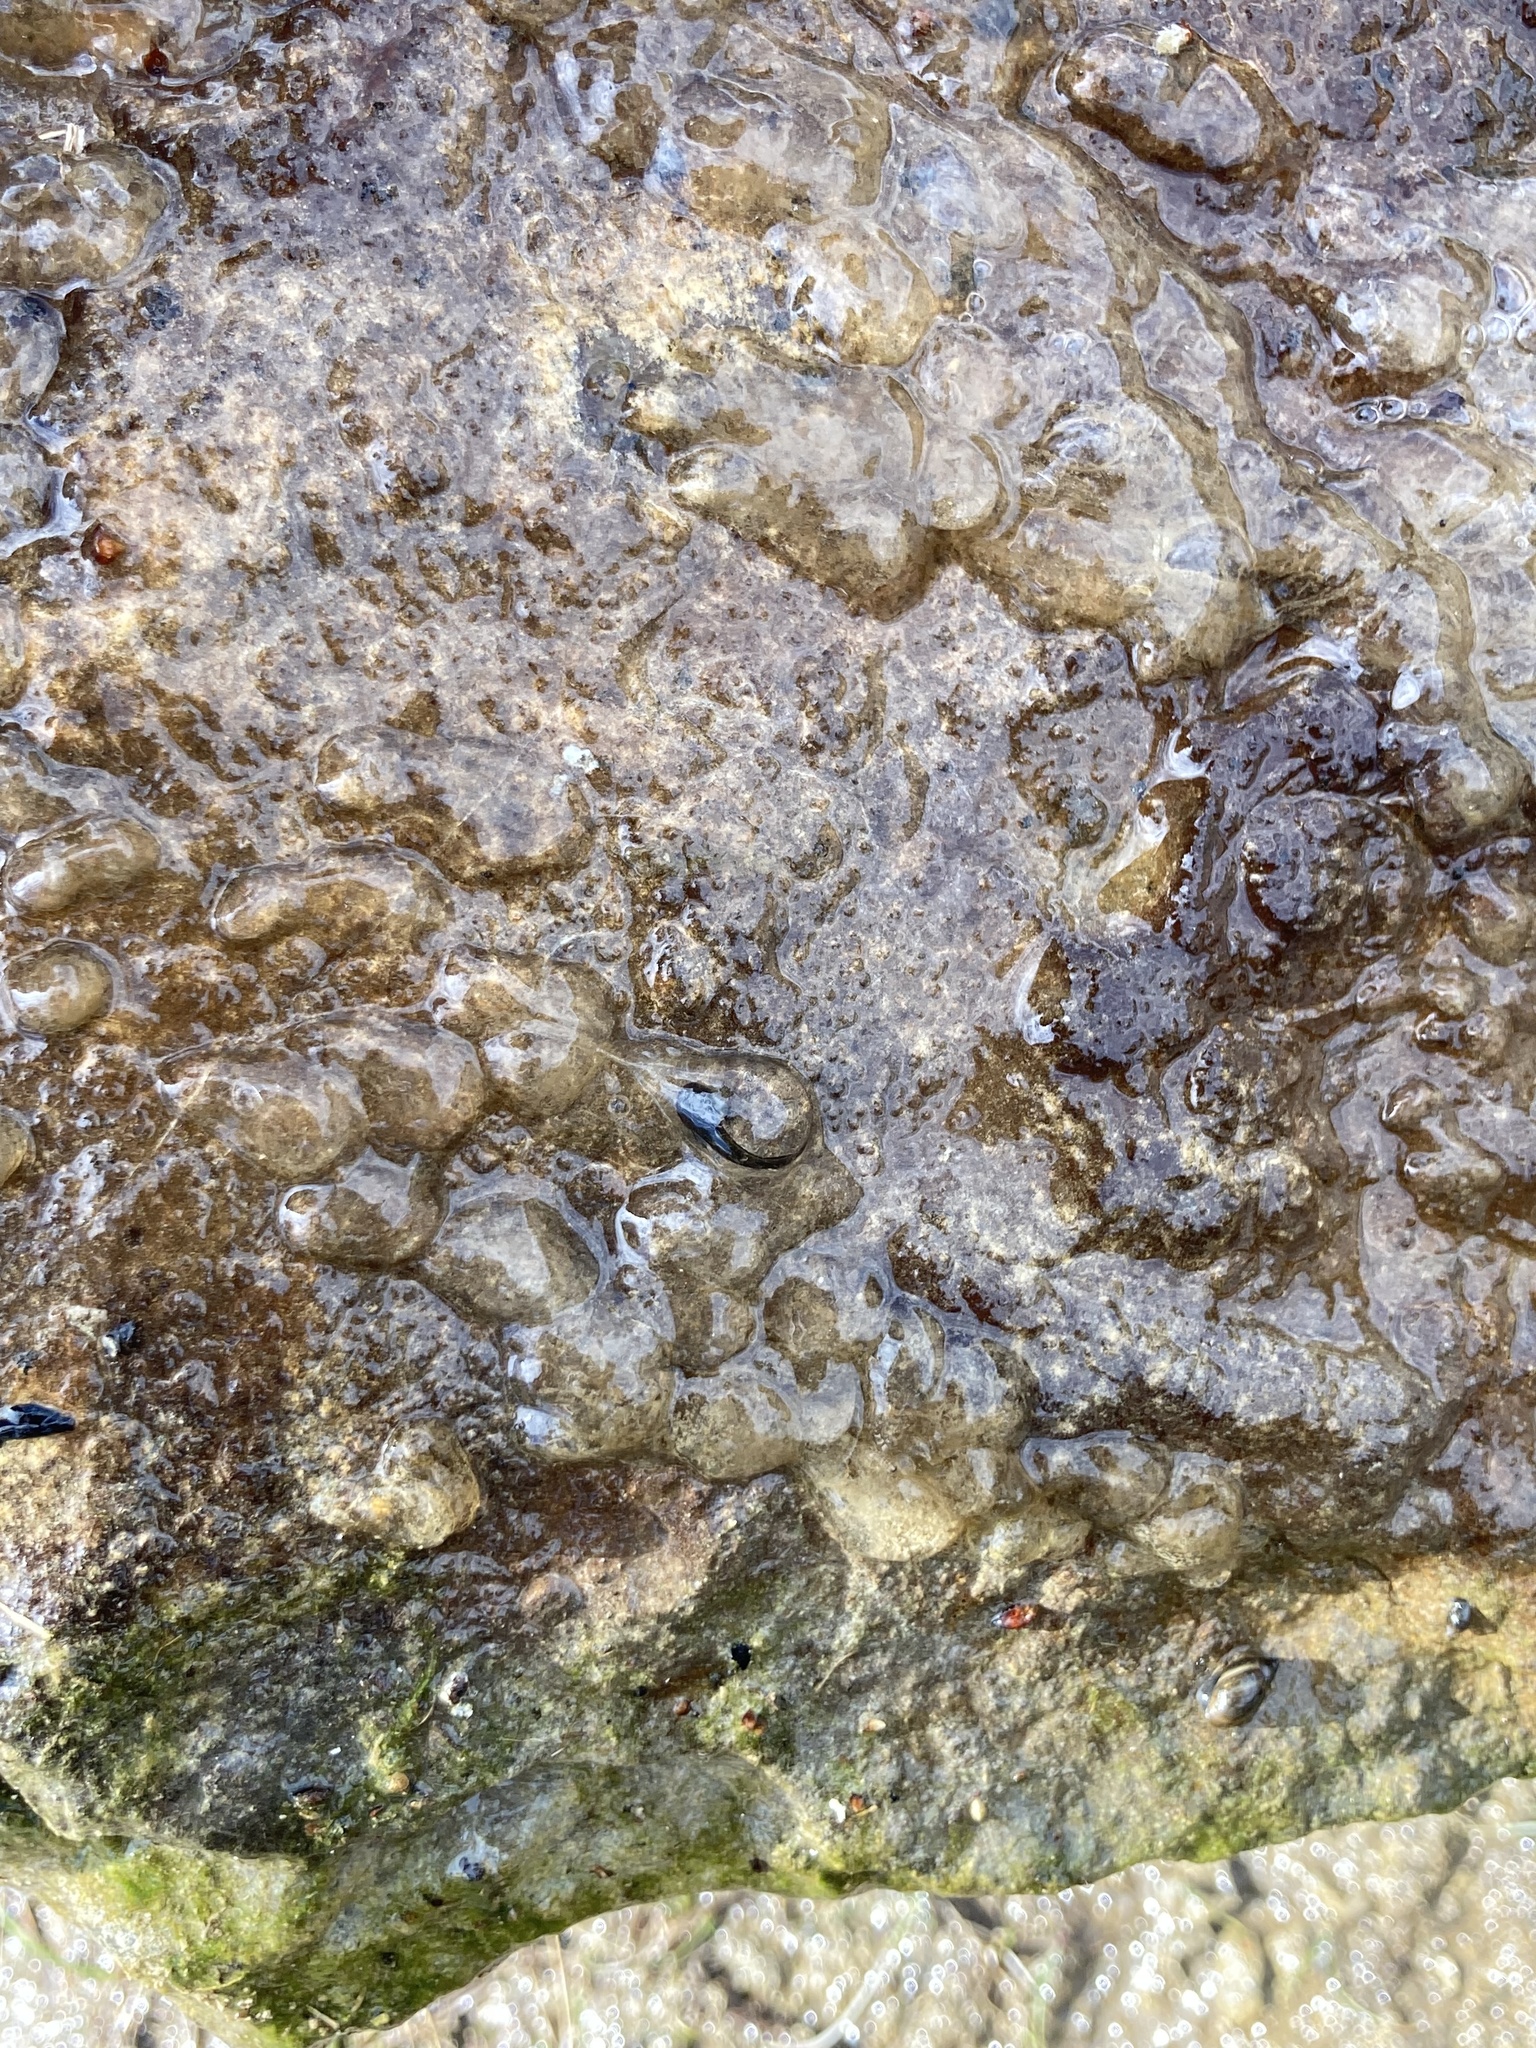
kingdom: Animalia
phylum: Chordata
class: Amphibia
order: Caudata
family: Ambystomatidae
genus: Ambystoma
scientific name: Ambystoma barbouri
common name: Streamside salamander
